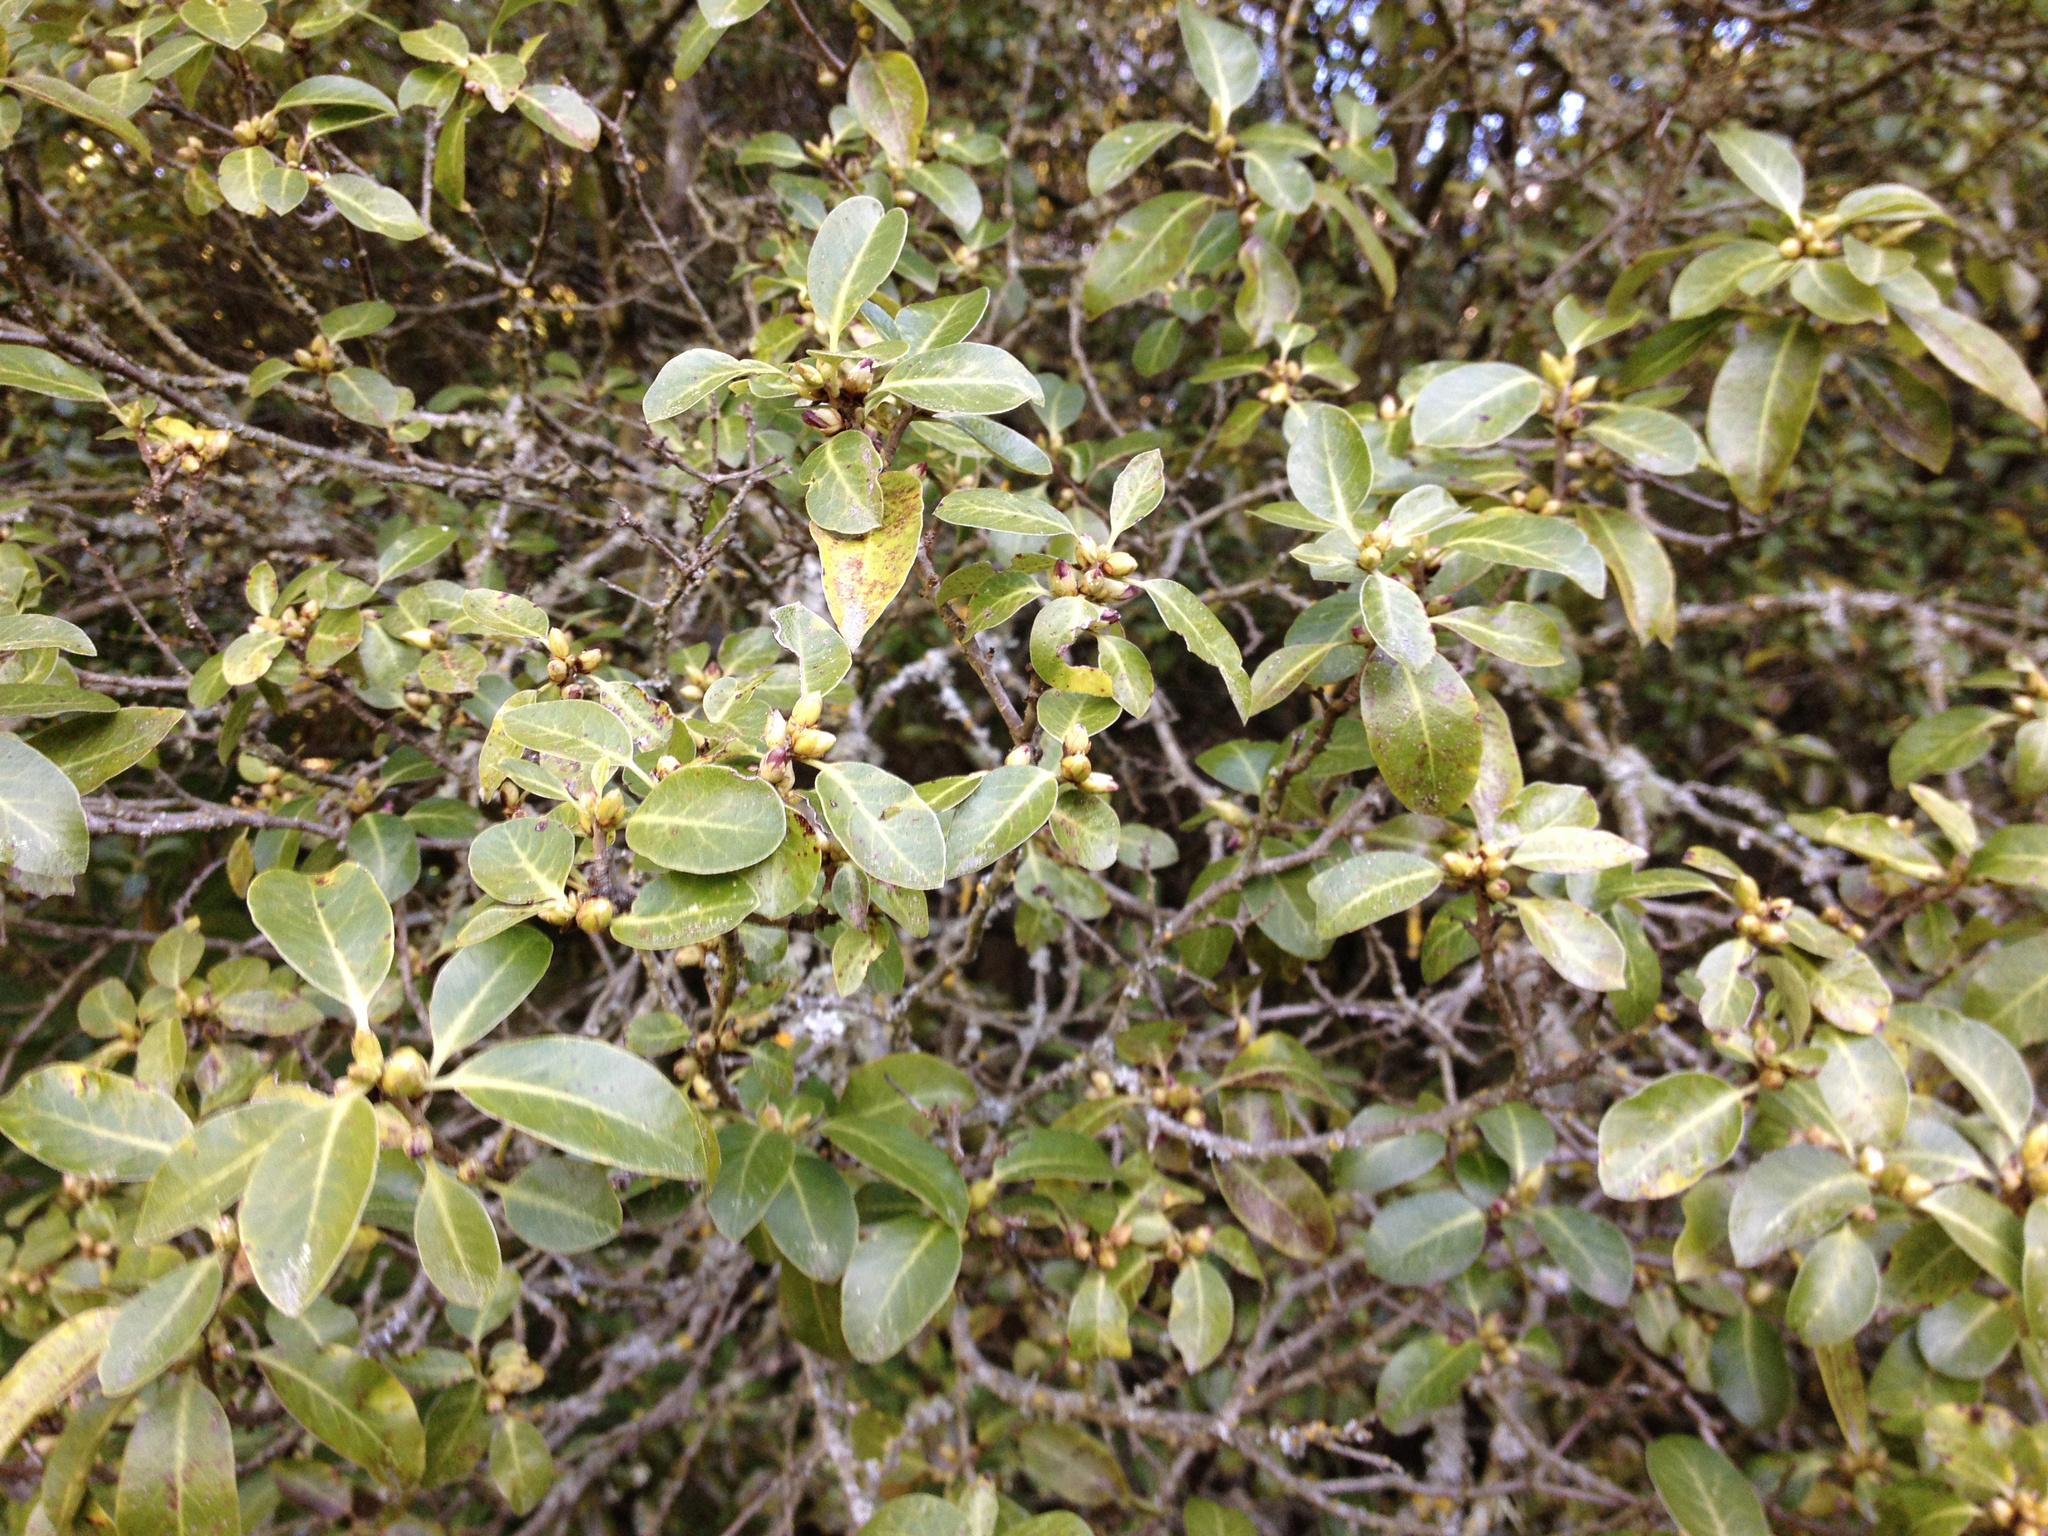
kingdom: Plantae
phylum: Tracheophyta
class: Magnoliopsida
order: Apiales
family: Pittosporaceae
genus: Pittosporum
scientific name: Pittosporum tenuifolium
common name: Kohuhu
